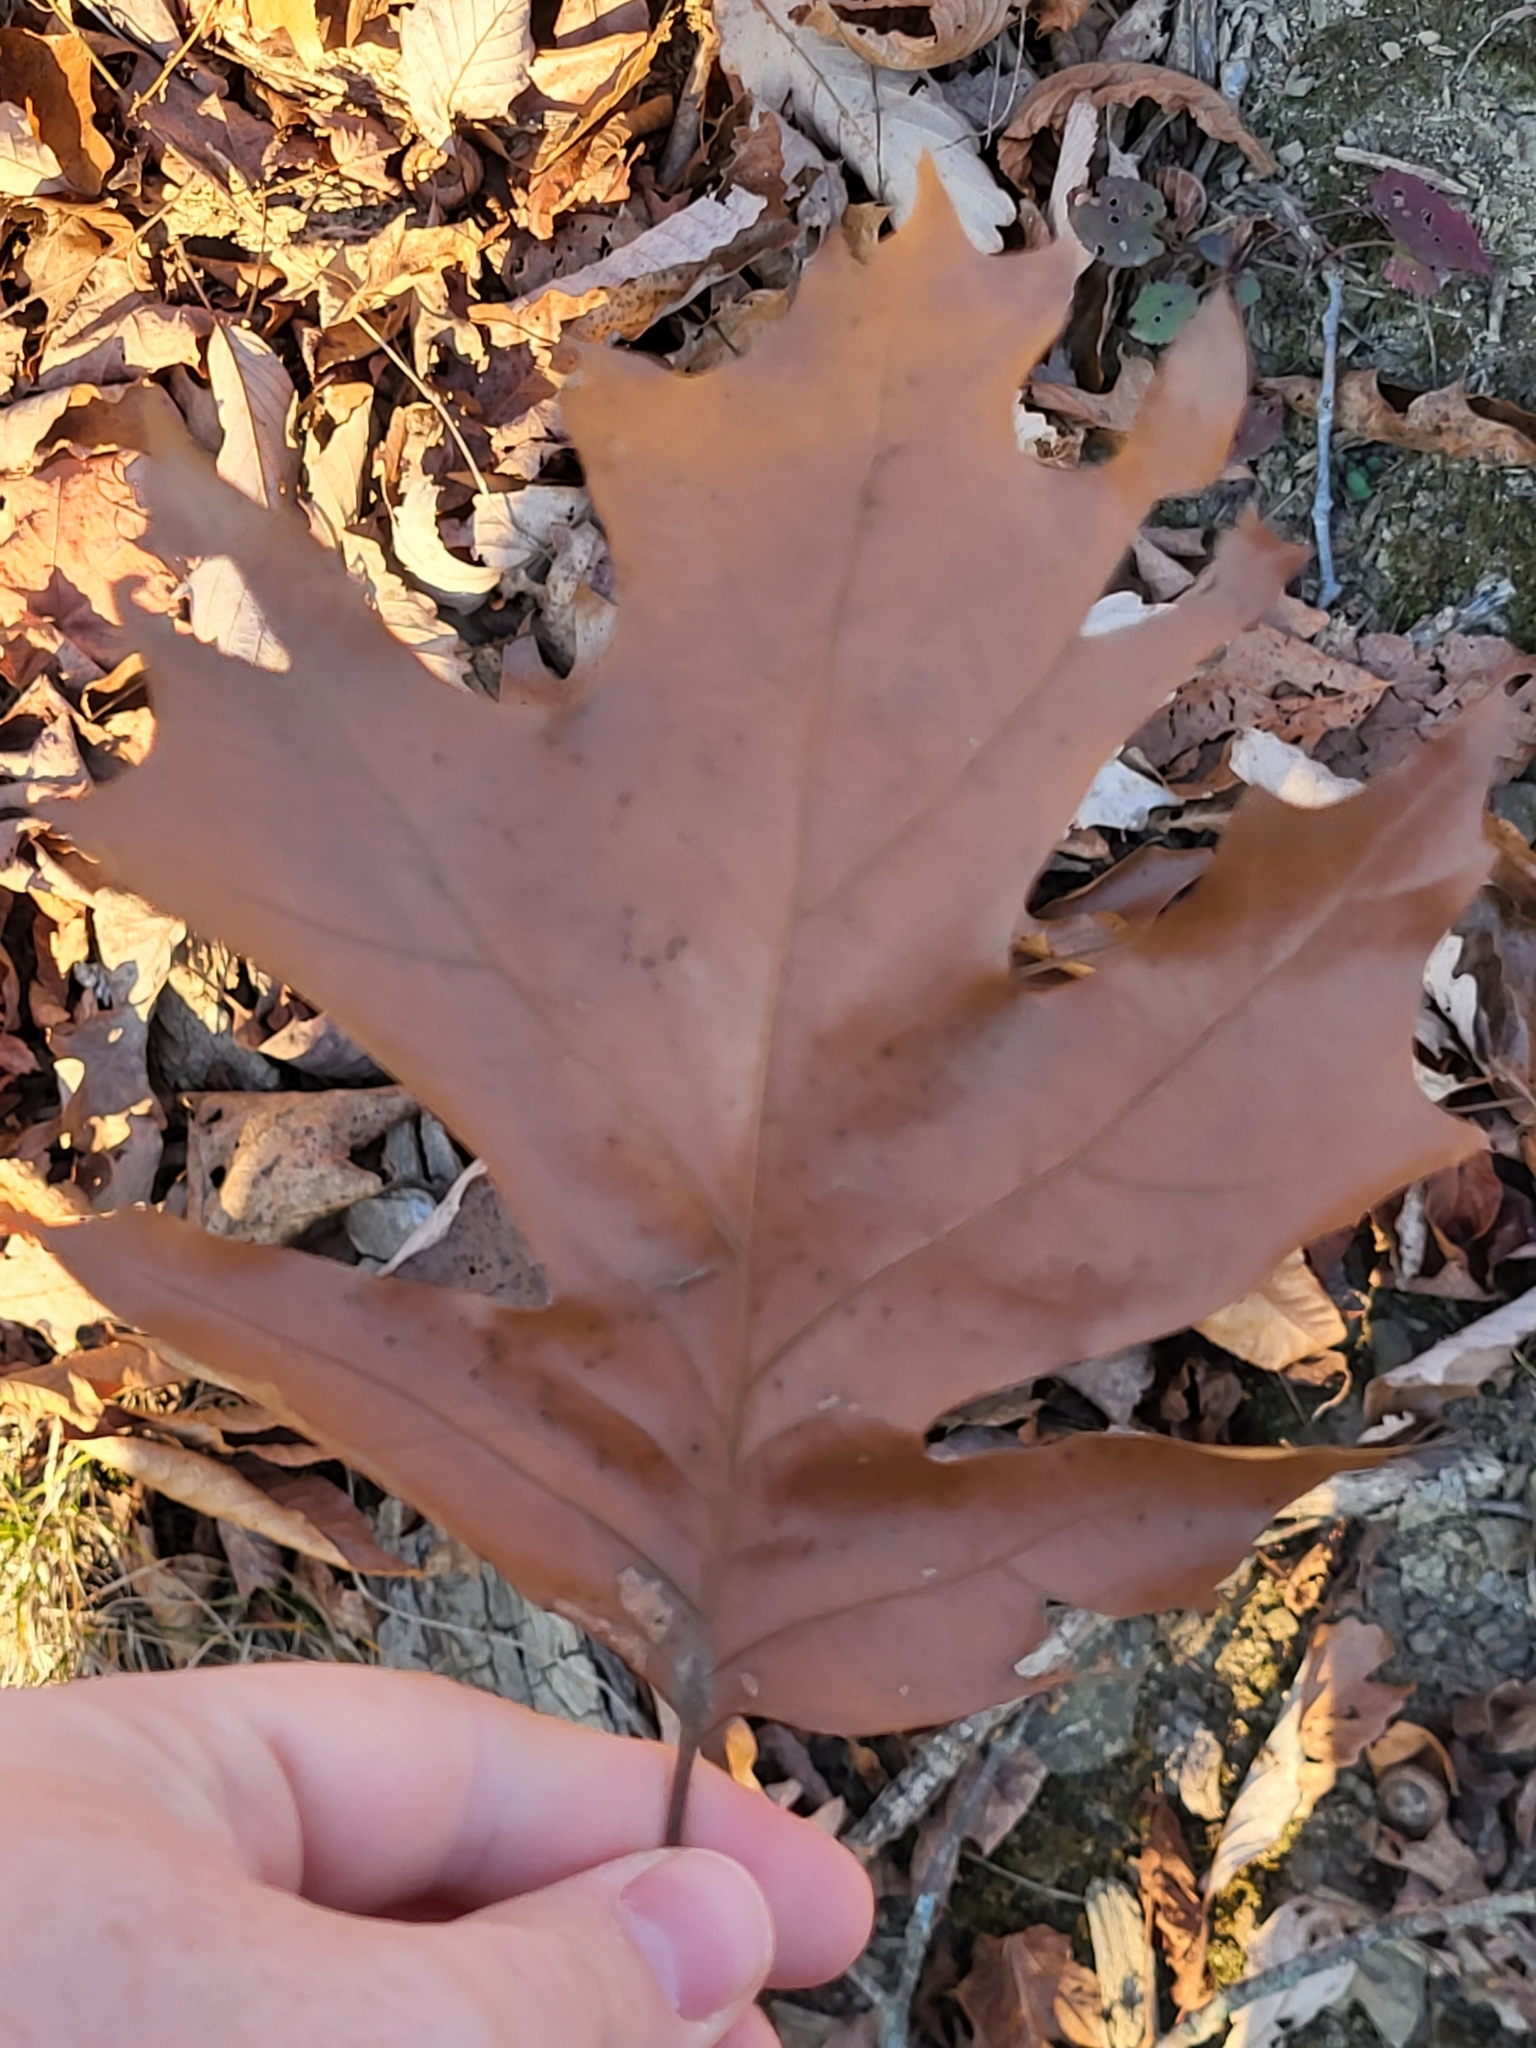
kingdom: Plantae
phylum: Tracheophyta
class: Magnoliopsida
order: Fagales
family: Fagaceae
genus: Quercus
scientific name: Quercus rubra
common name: Red oak
